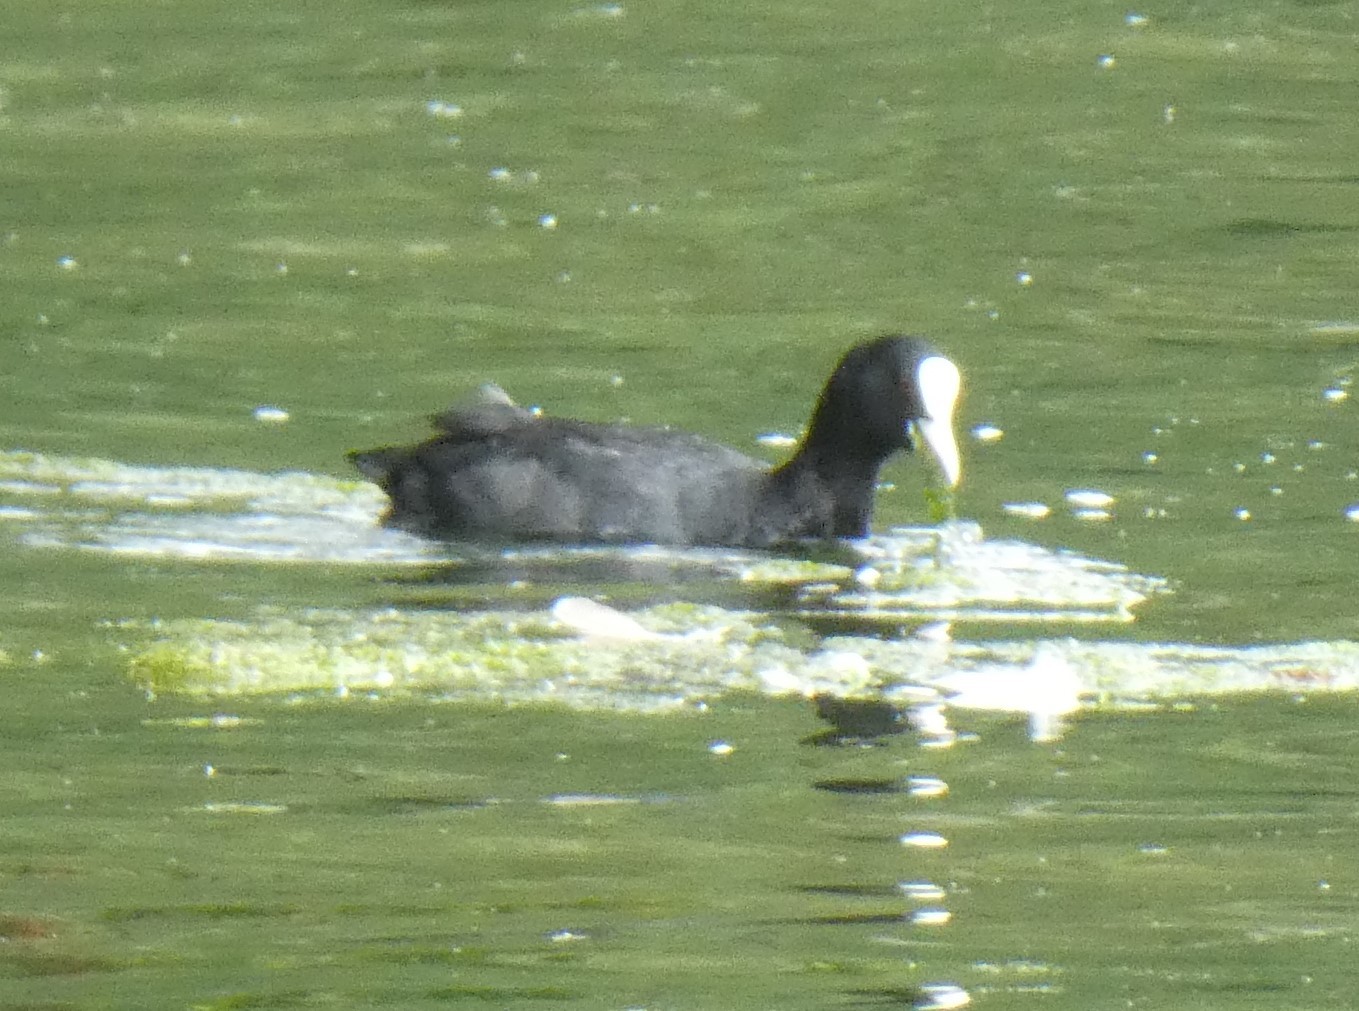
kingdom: Animalia
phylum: Chordata
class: Aves
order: Gruiformes
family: Rallidae
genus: Fulica
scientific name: Fulica atra
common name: Eurasian coot
